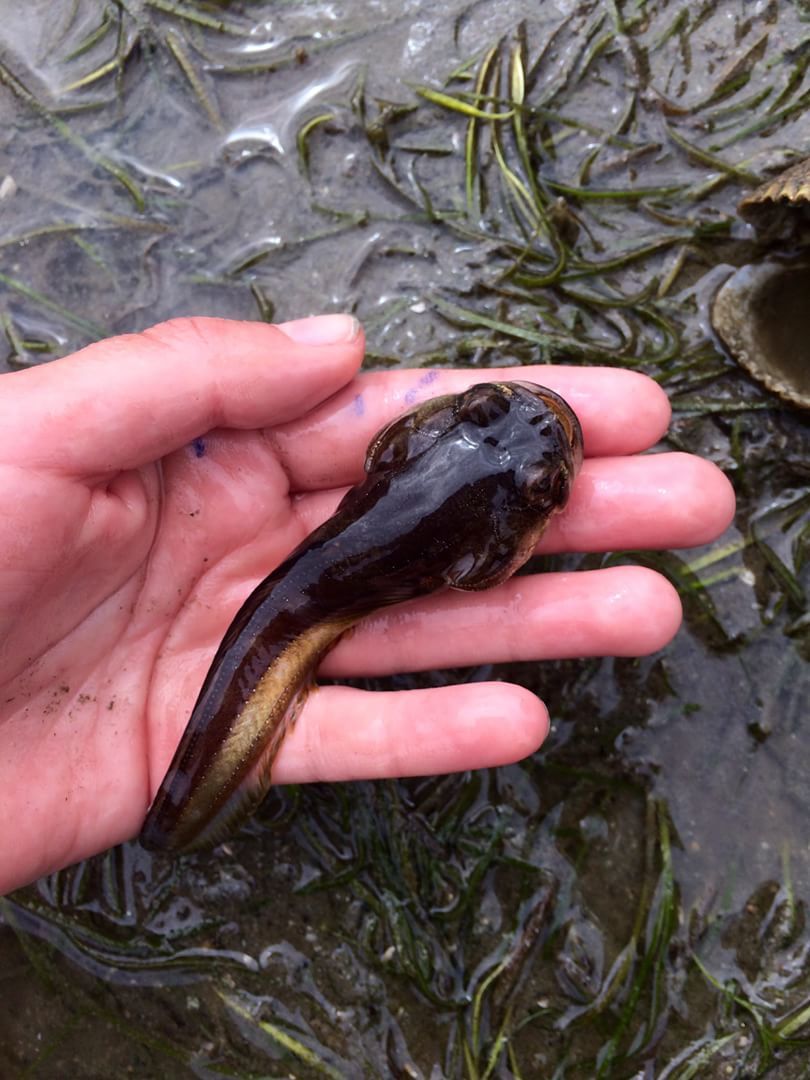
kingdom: Animalia
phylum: Chordata
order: Batrachoidiformes
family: Batrachoididae
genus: Porichthys
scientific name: Porichthys notatus
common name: Plainfin midshipman
